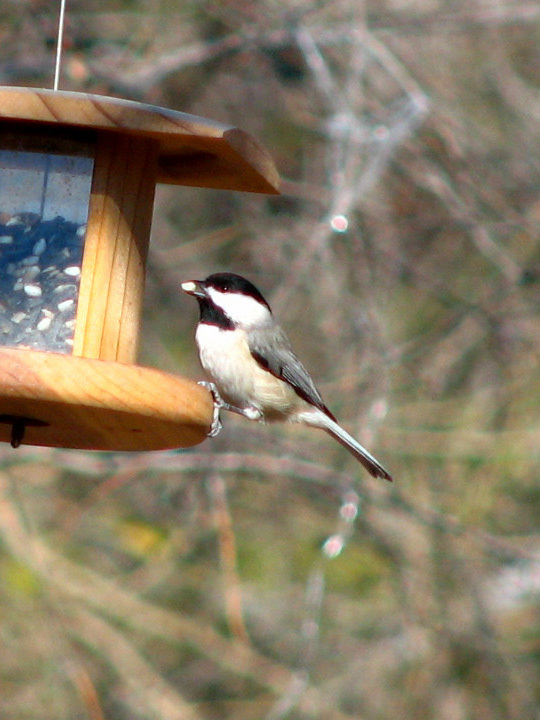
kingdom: Animalia
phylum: Chordata
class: Aves
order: Passeriformes
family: Paridae
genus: Poecile
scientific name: Poecile carolinensis
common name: Carolina chickadee
